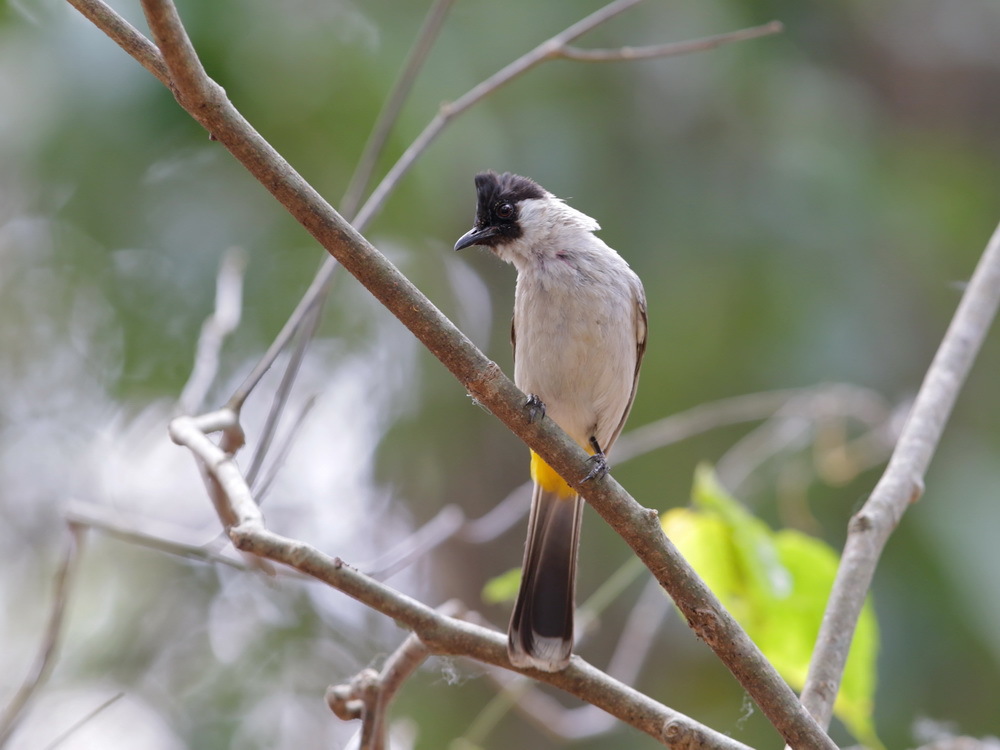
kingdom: Animalia
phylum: Chordata
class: Aves
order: Passeriformes
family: Pycnonotidae
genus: Pycnonotus
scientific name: Pycnonotus aurigaster
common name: Sooty-headed bulbul
